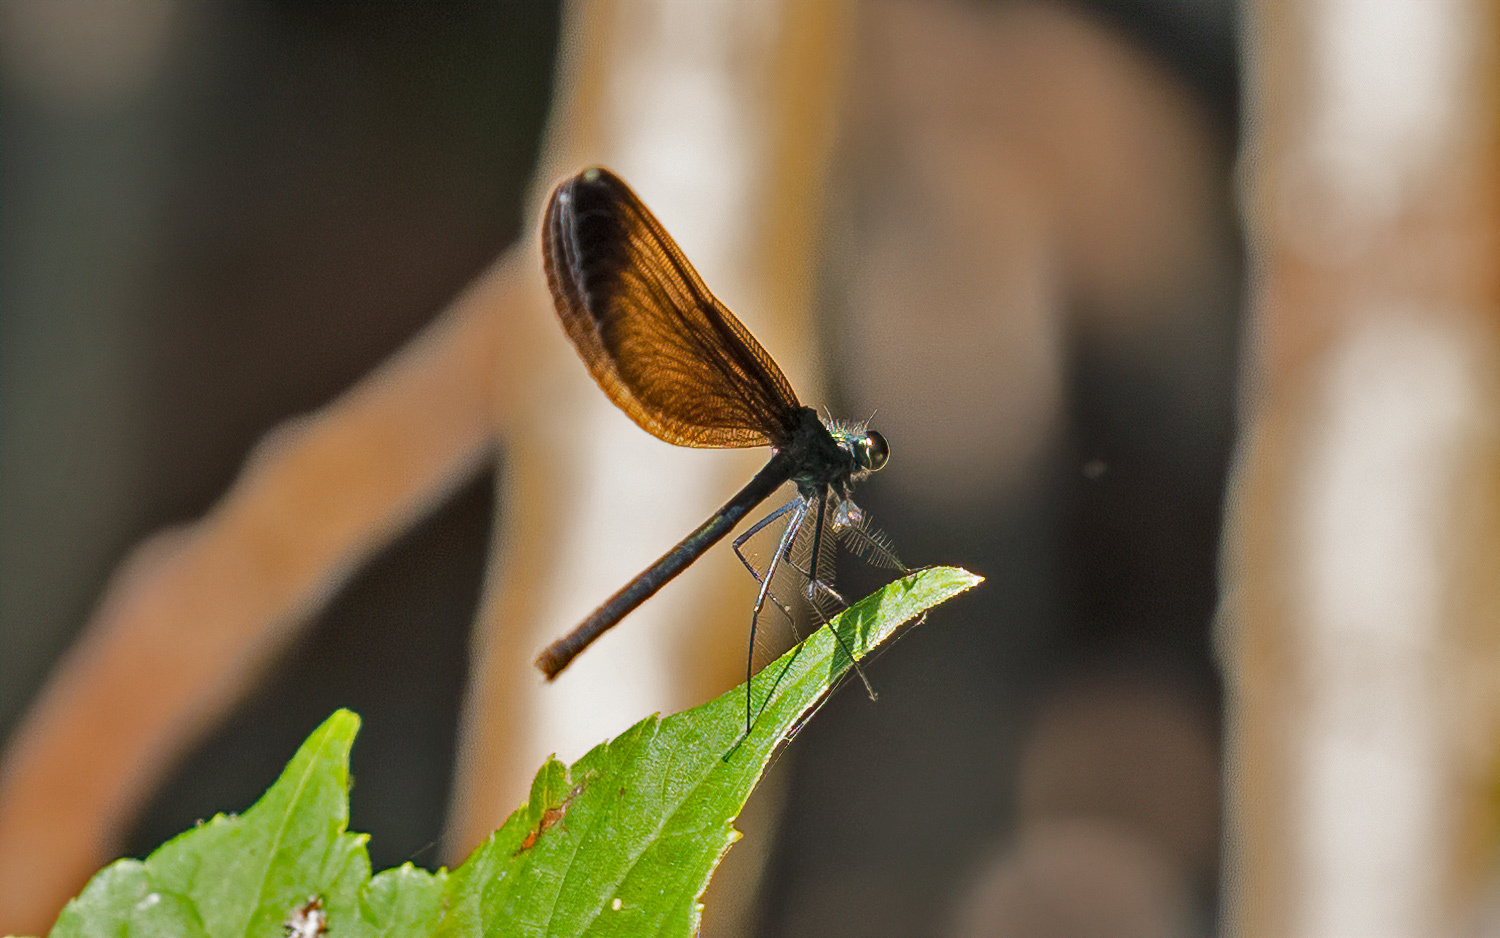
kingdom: Animalia
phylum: Arthropoda
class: Insecta
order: Odonata
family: Calopterygidae
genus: Calopteryx
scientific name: Calopteryx maculata
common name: Ebony jewelwing
